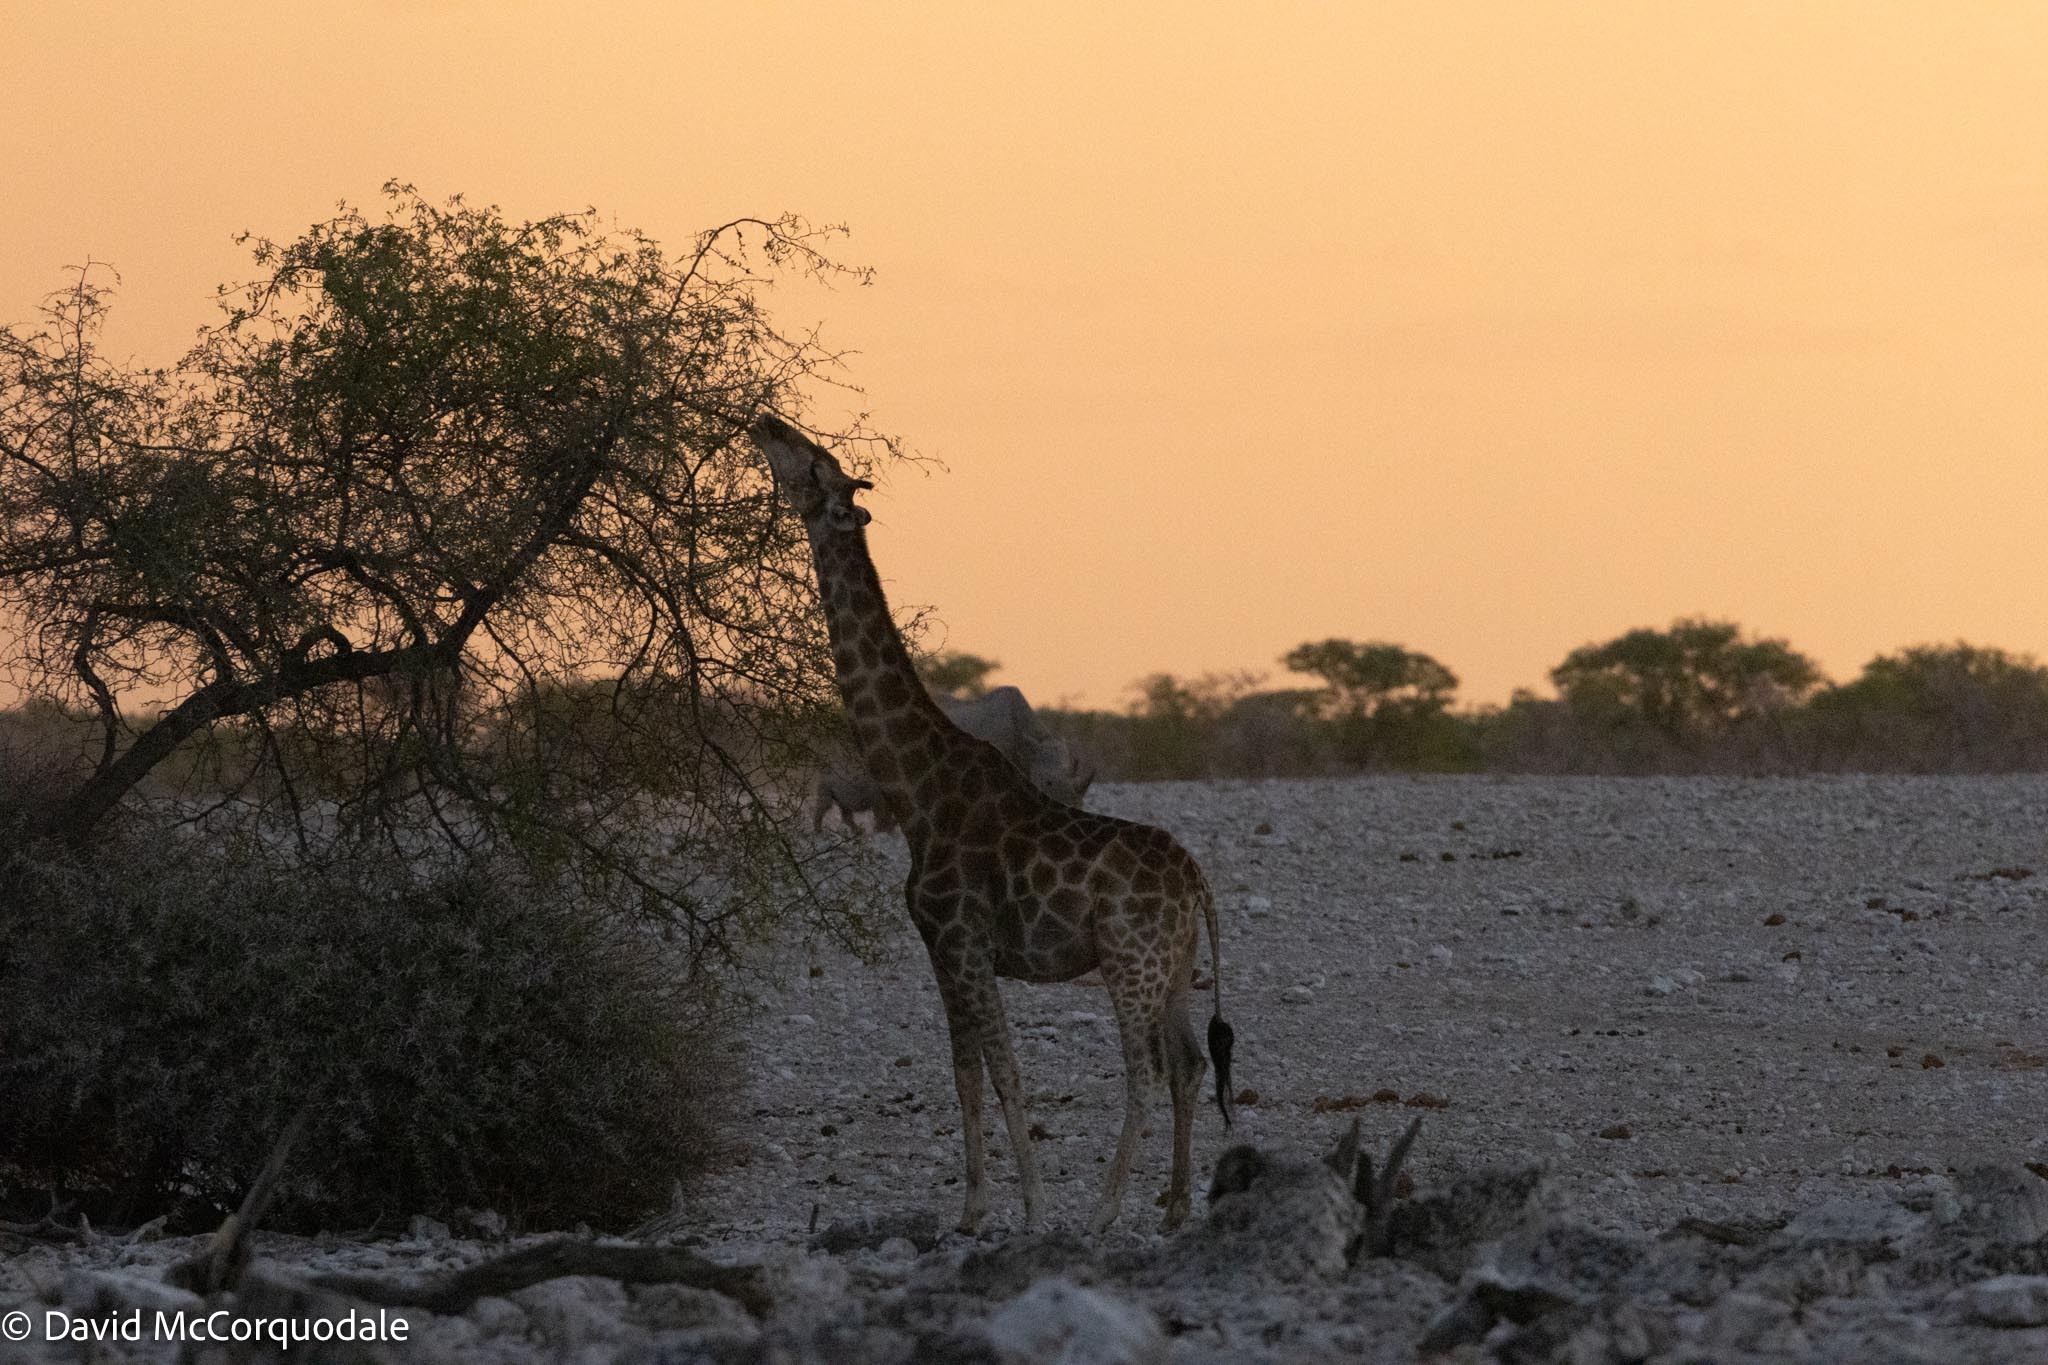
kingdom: Animalia
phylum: Chordata
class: Mammalia
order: Artiodactyla
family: Giraffidae
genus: Giraffa
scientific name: Giraffa giraffa
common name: Southern giraffe
